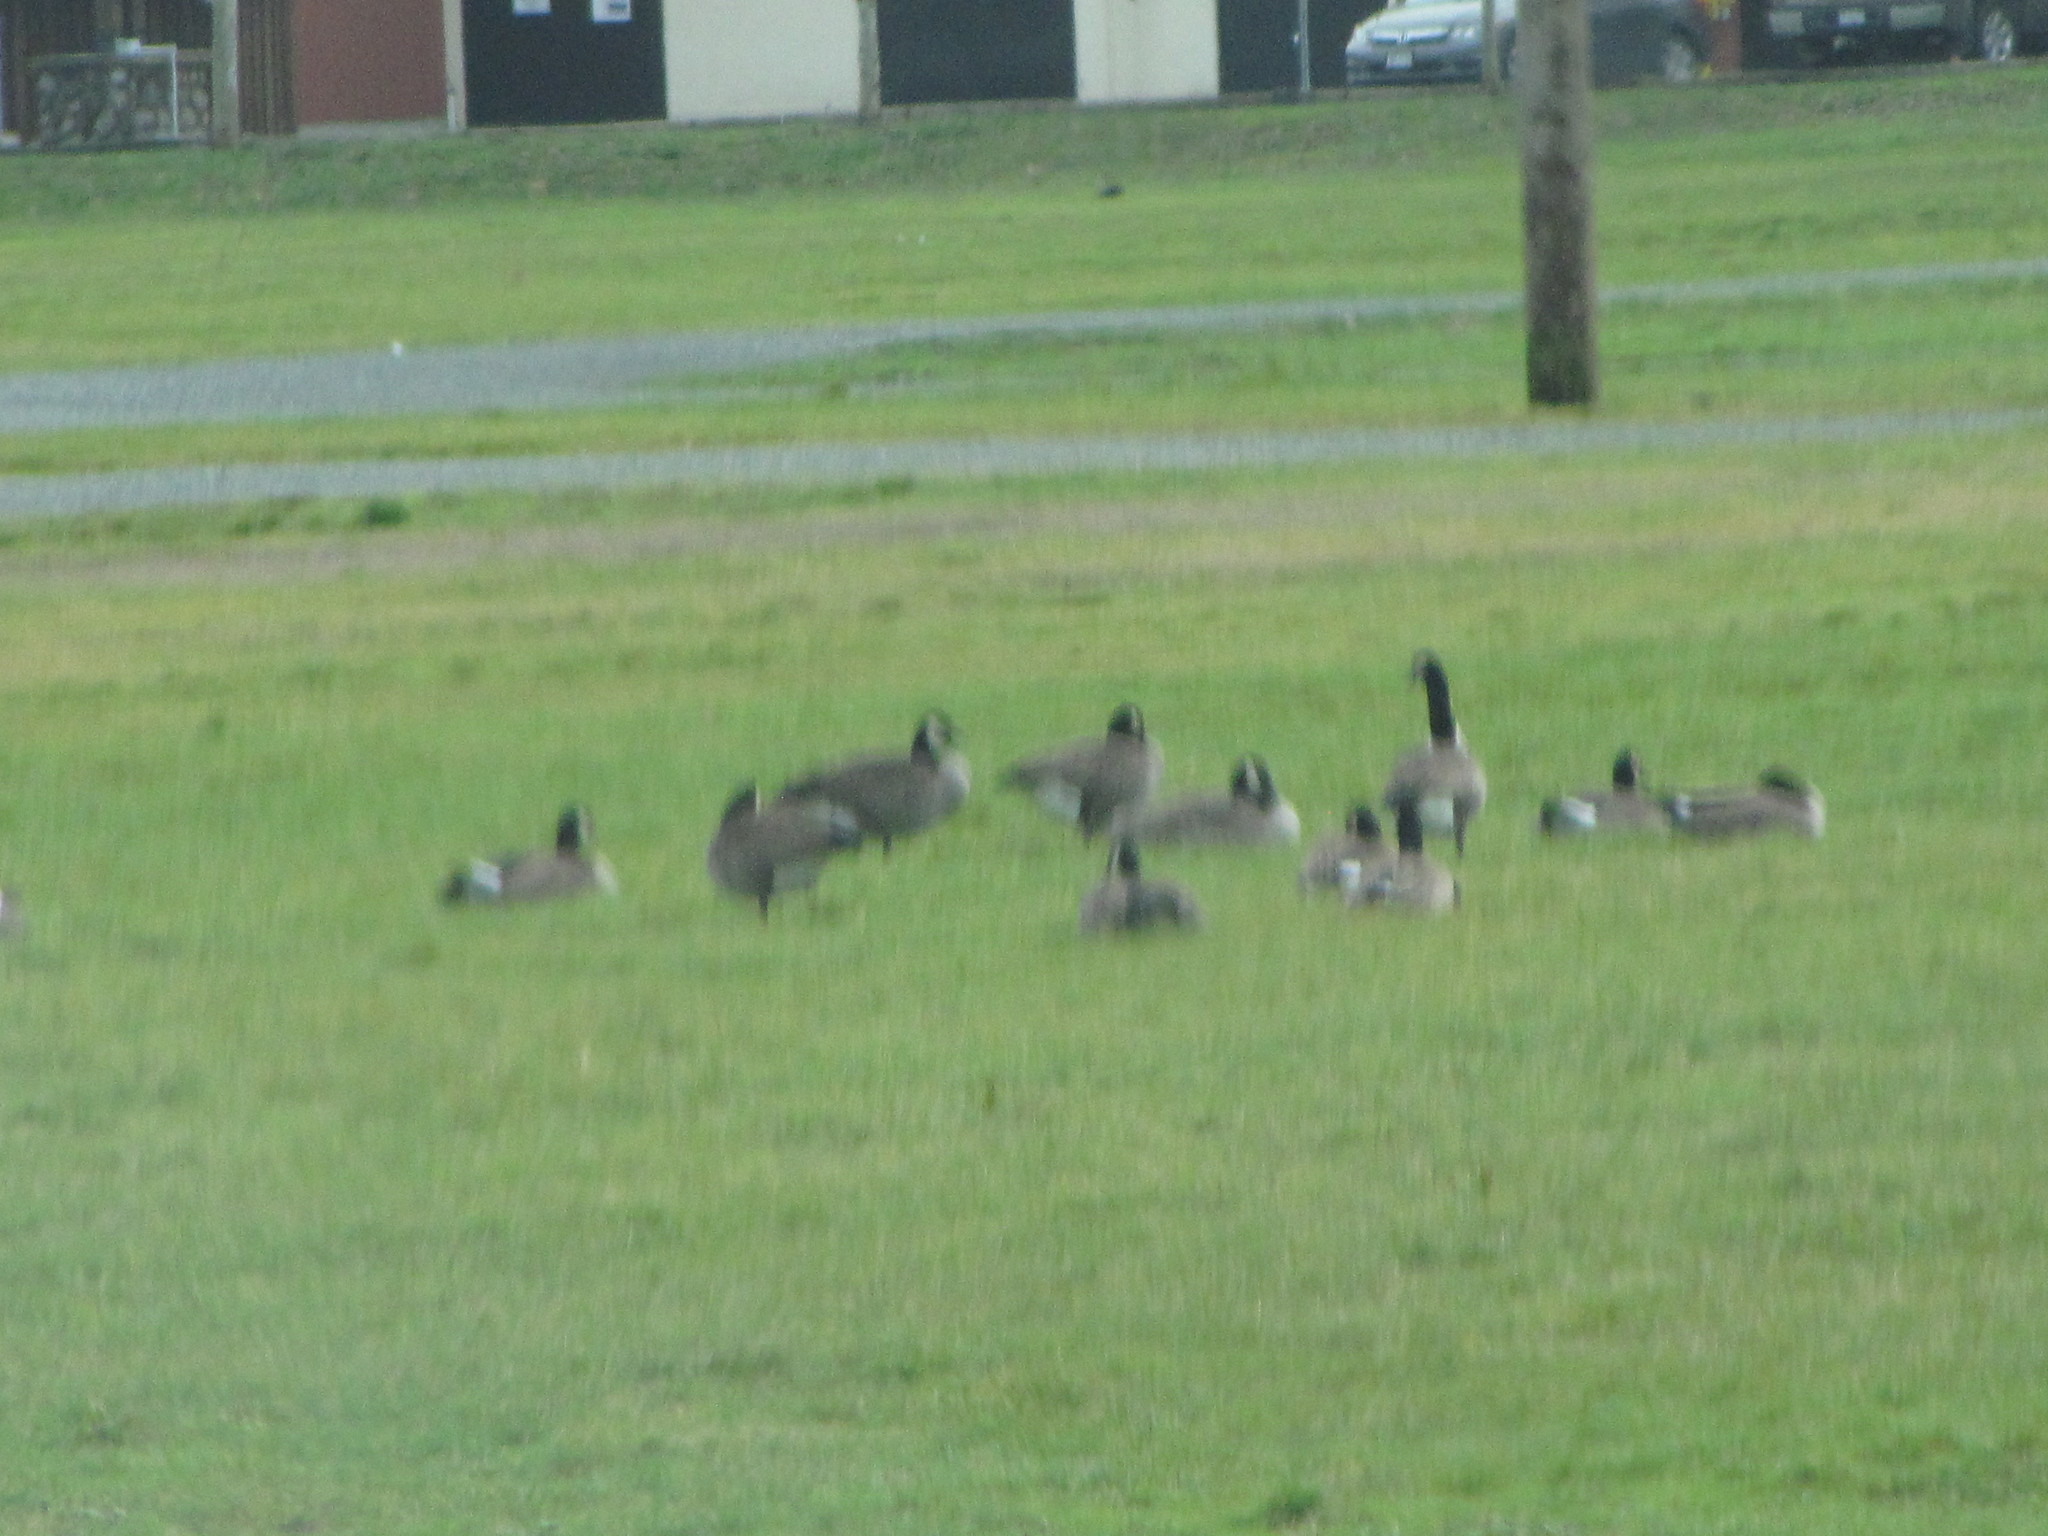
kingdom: Animalia
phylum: Chordata
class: Aves
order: Anseriformes
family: Anatidae
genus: Branta
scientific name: Branta canadensis
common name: Canada goose
